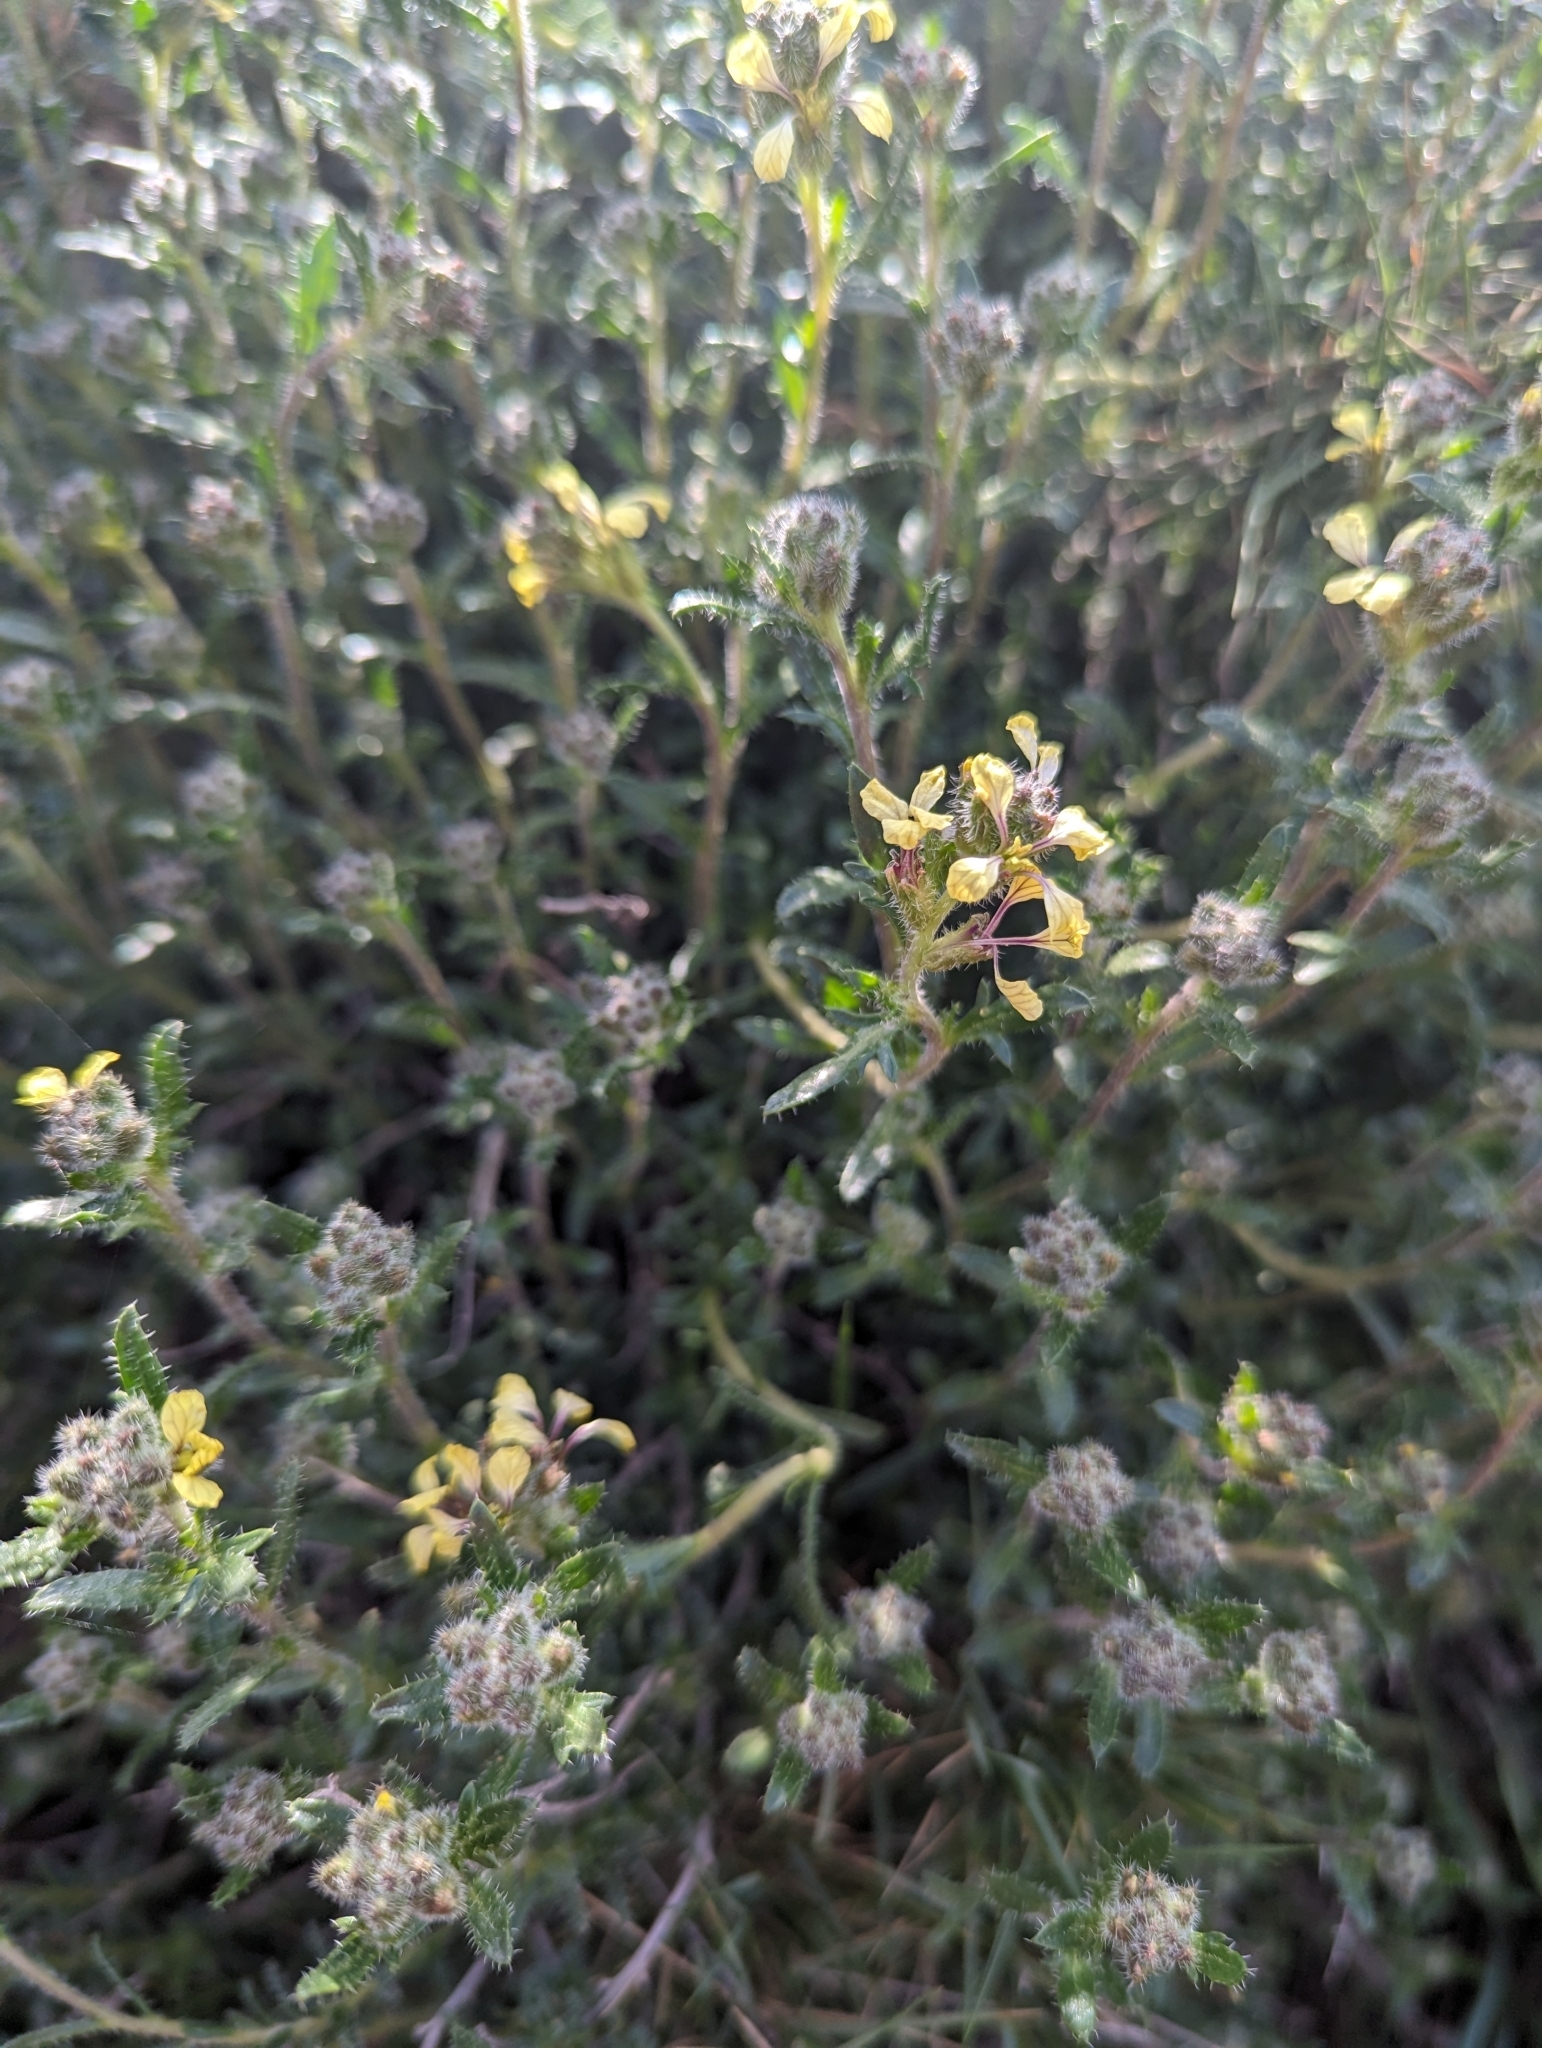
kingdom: Plantae
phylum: Tracheophyta
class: Magnoliopsida
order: Brassicales
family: Brassicaceae
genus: Vella
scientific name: Vella aspera
